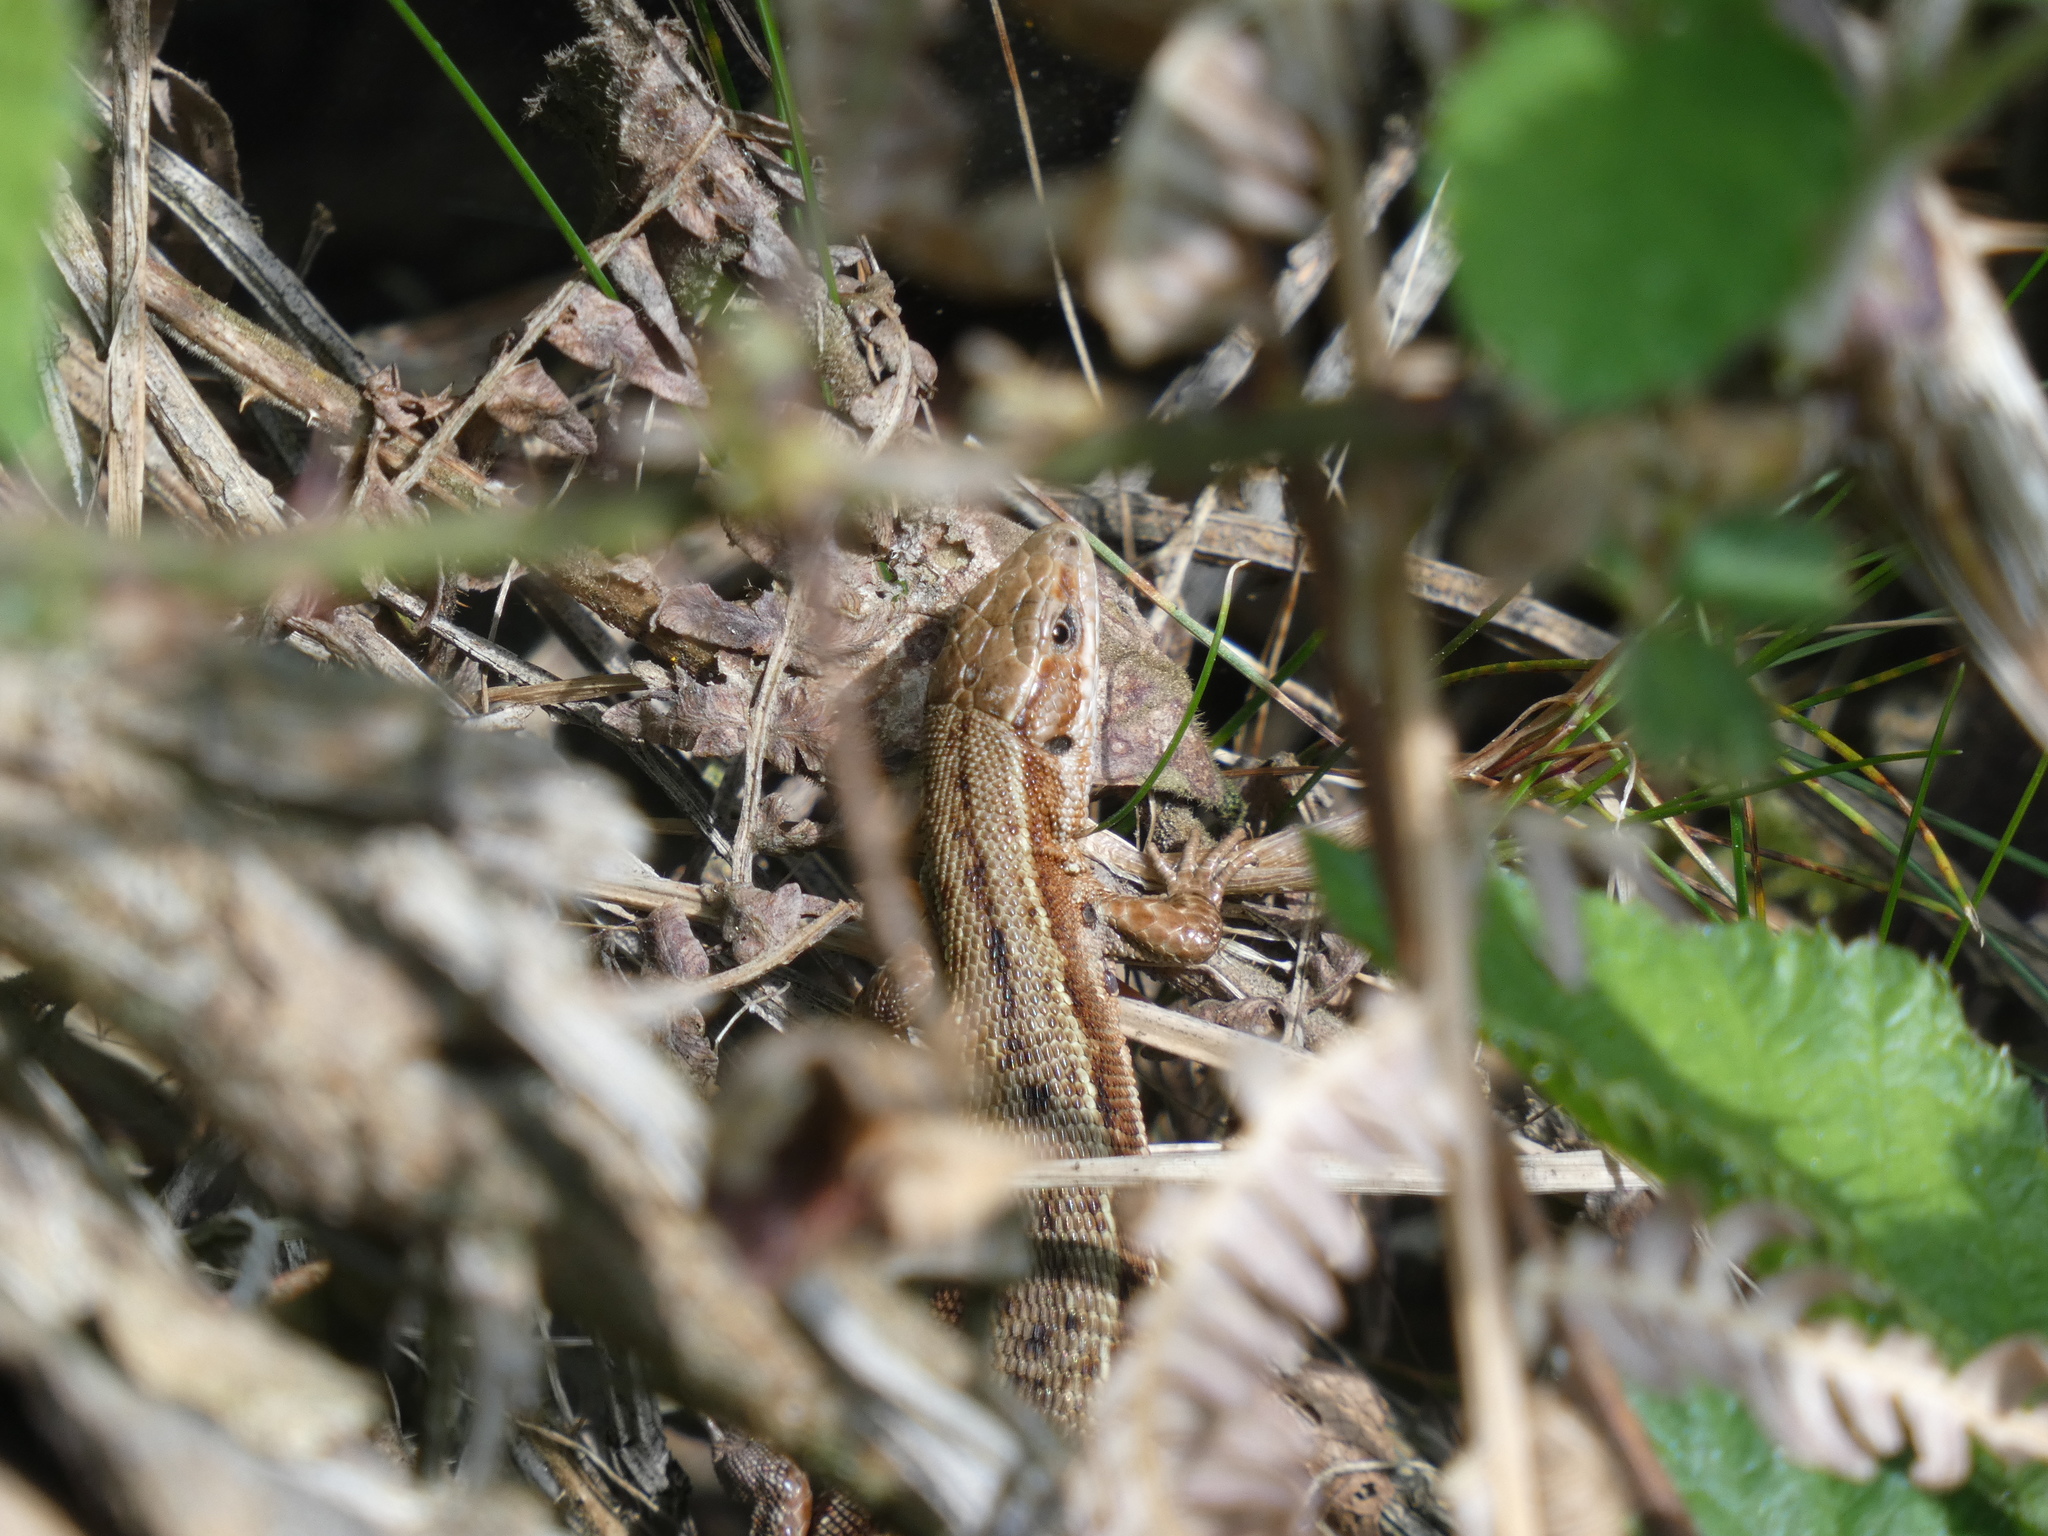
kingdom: Animalia
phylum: Chordata
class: Squamata
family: Lacertidae
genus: Zootoca
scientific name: Zootoca vivipara
